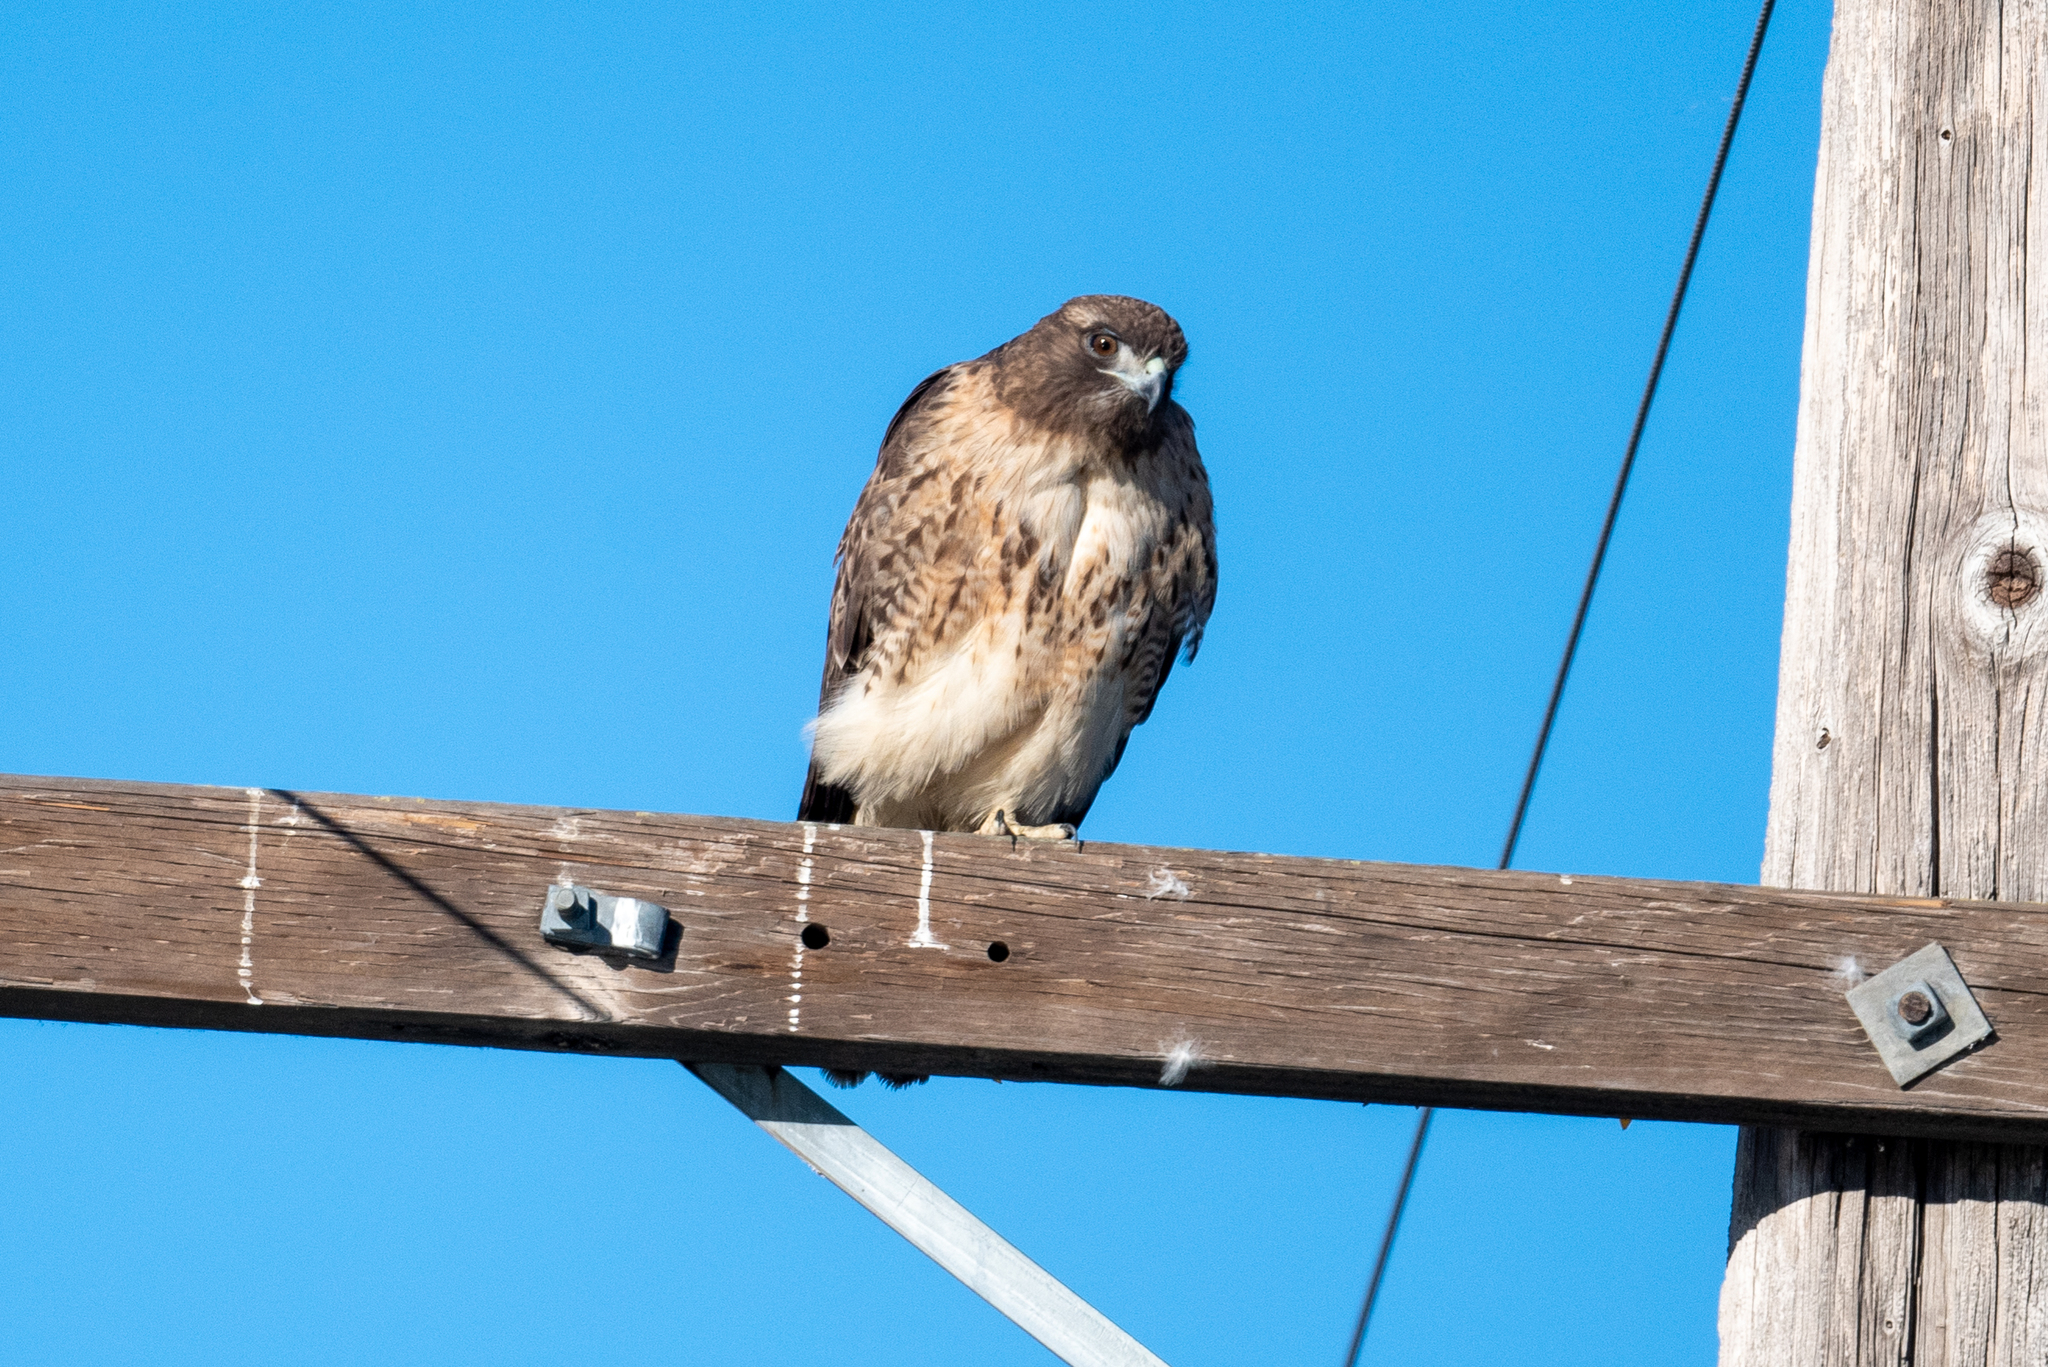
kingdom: Animalia
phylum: Chordata
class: Aves
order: Accipitriformes
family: Accipitridae
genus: Buteo
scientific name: Buteo jamaicensis
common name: Red-tailed hawk
